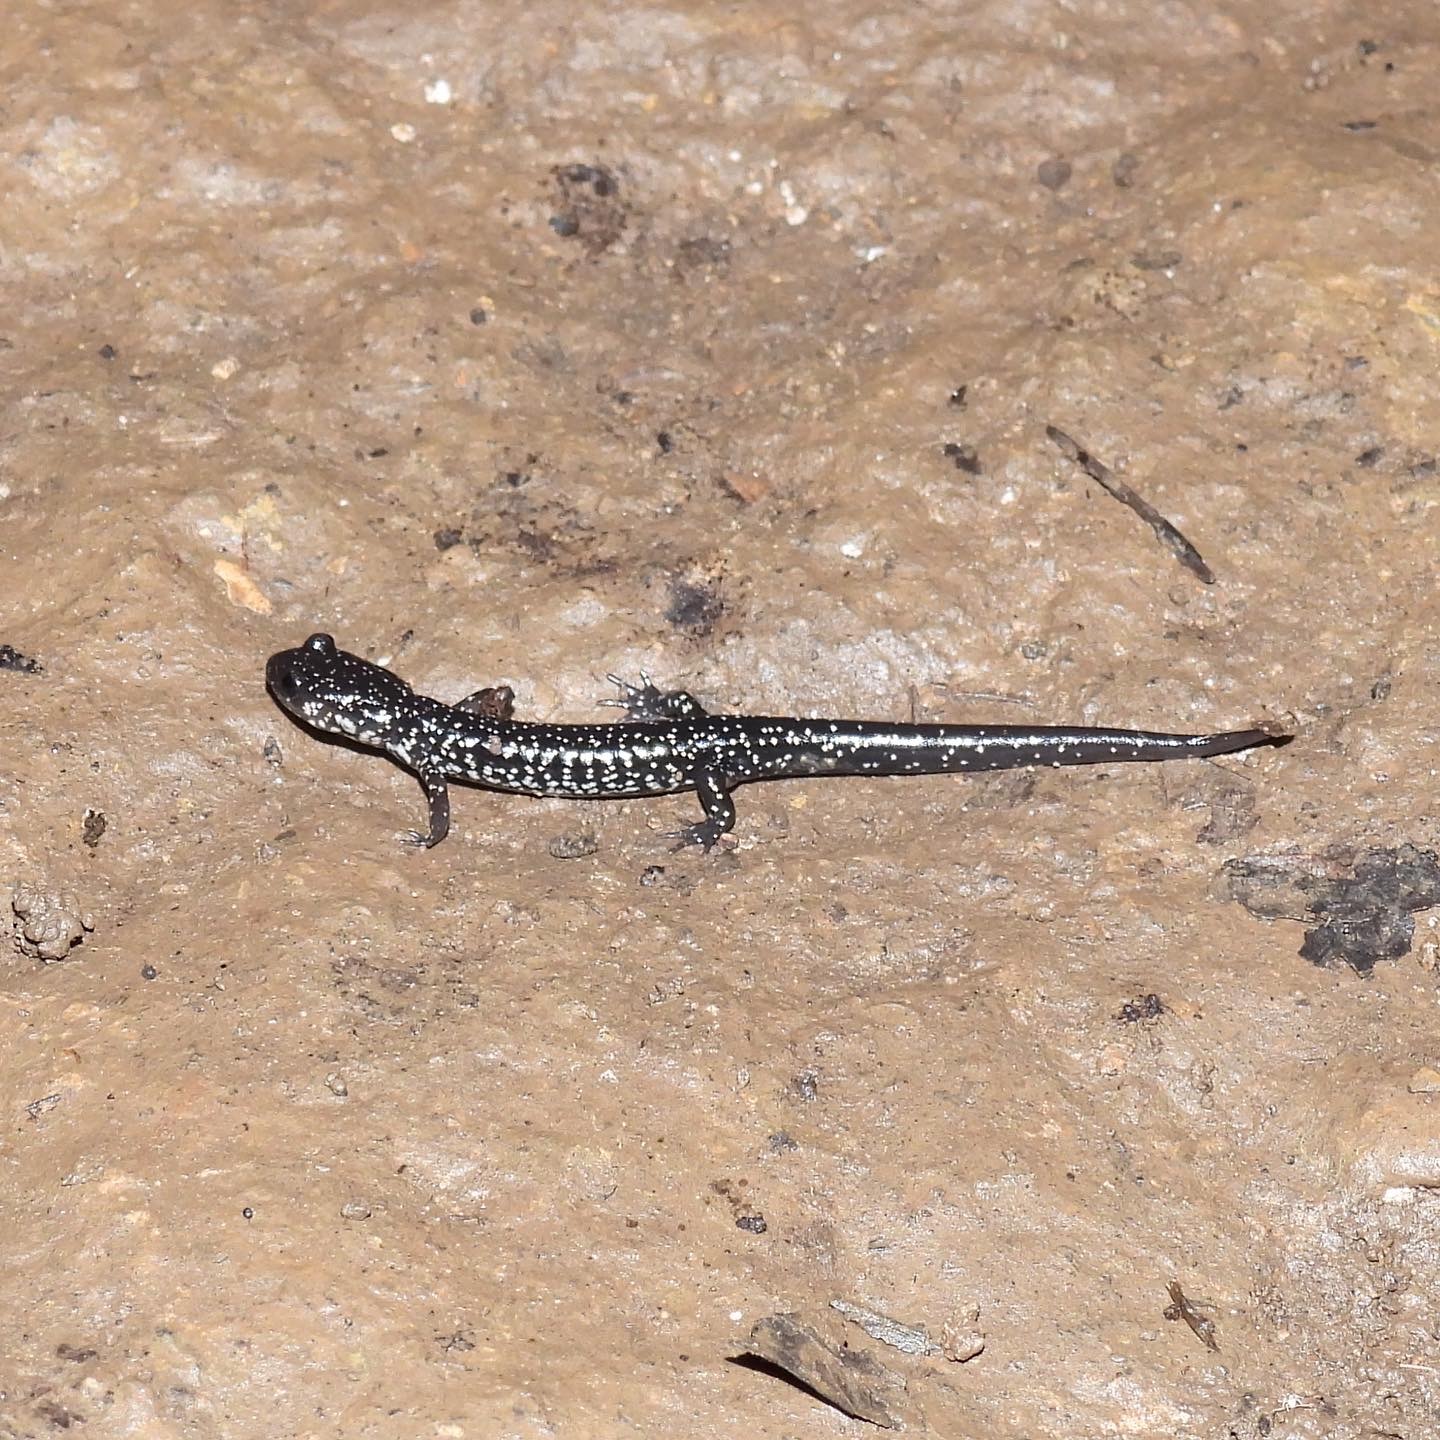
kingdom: Animalia
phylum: Chordata
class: Amphibia
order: Caudata
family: Plethodontidae
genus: Plethodon
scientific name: Plethodon glutinosus
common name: Northern slimy salamander
